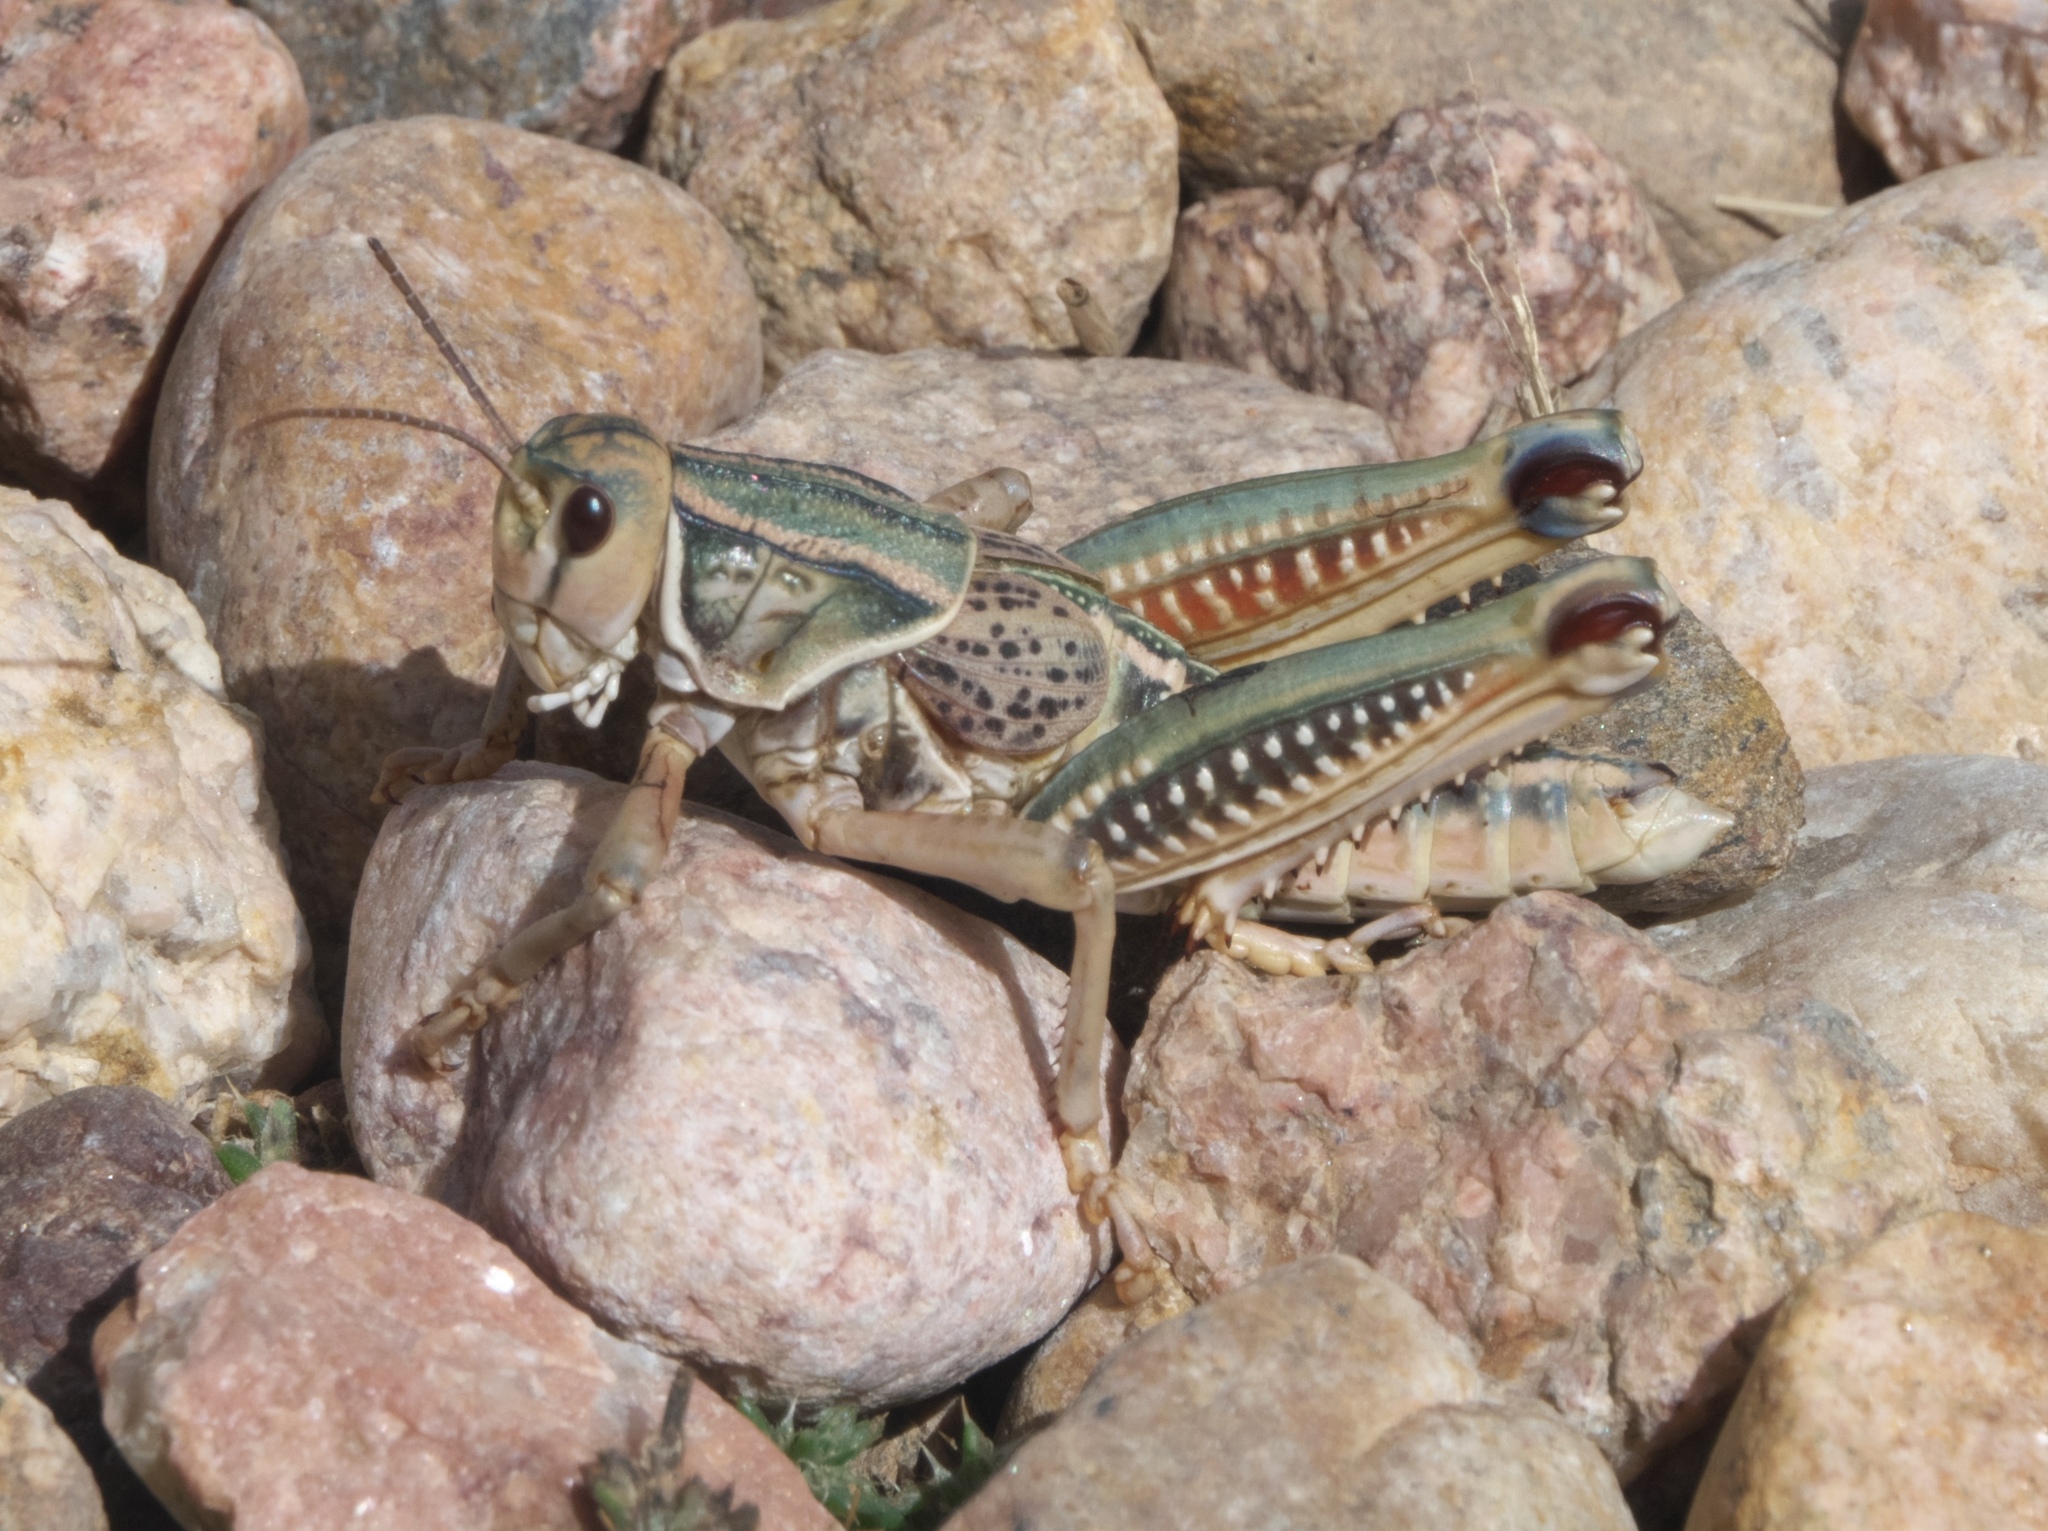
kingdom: Animalia
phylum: Arthropoda
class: Insecta
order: Orthoptera
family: Romaleidae
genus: Brachystola
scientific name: Brachystola magna
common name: Plains lubber grasshopper
